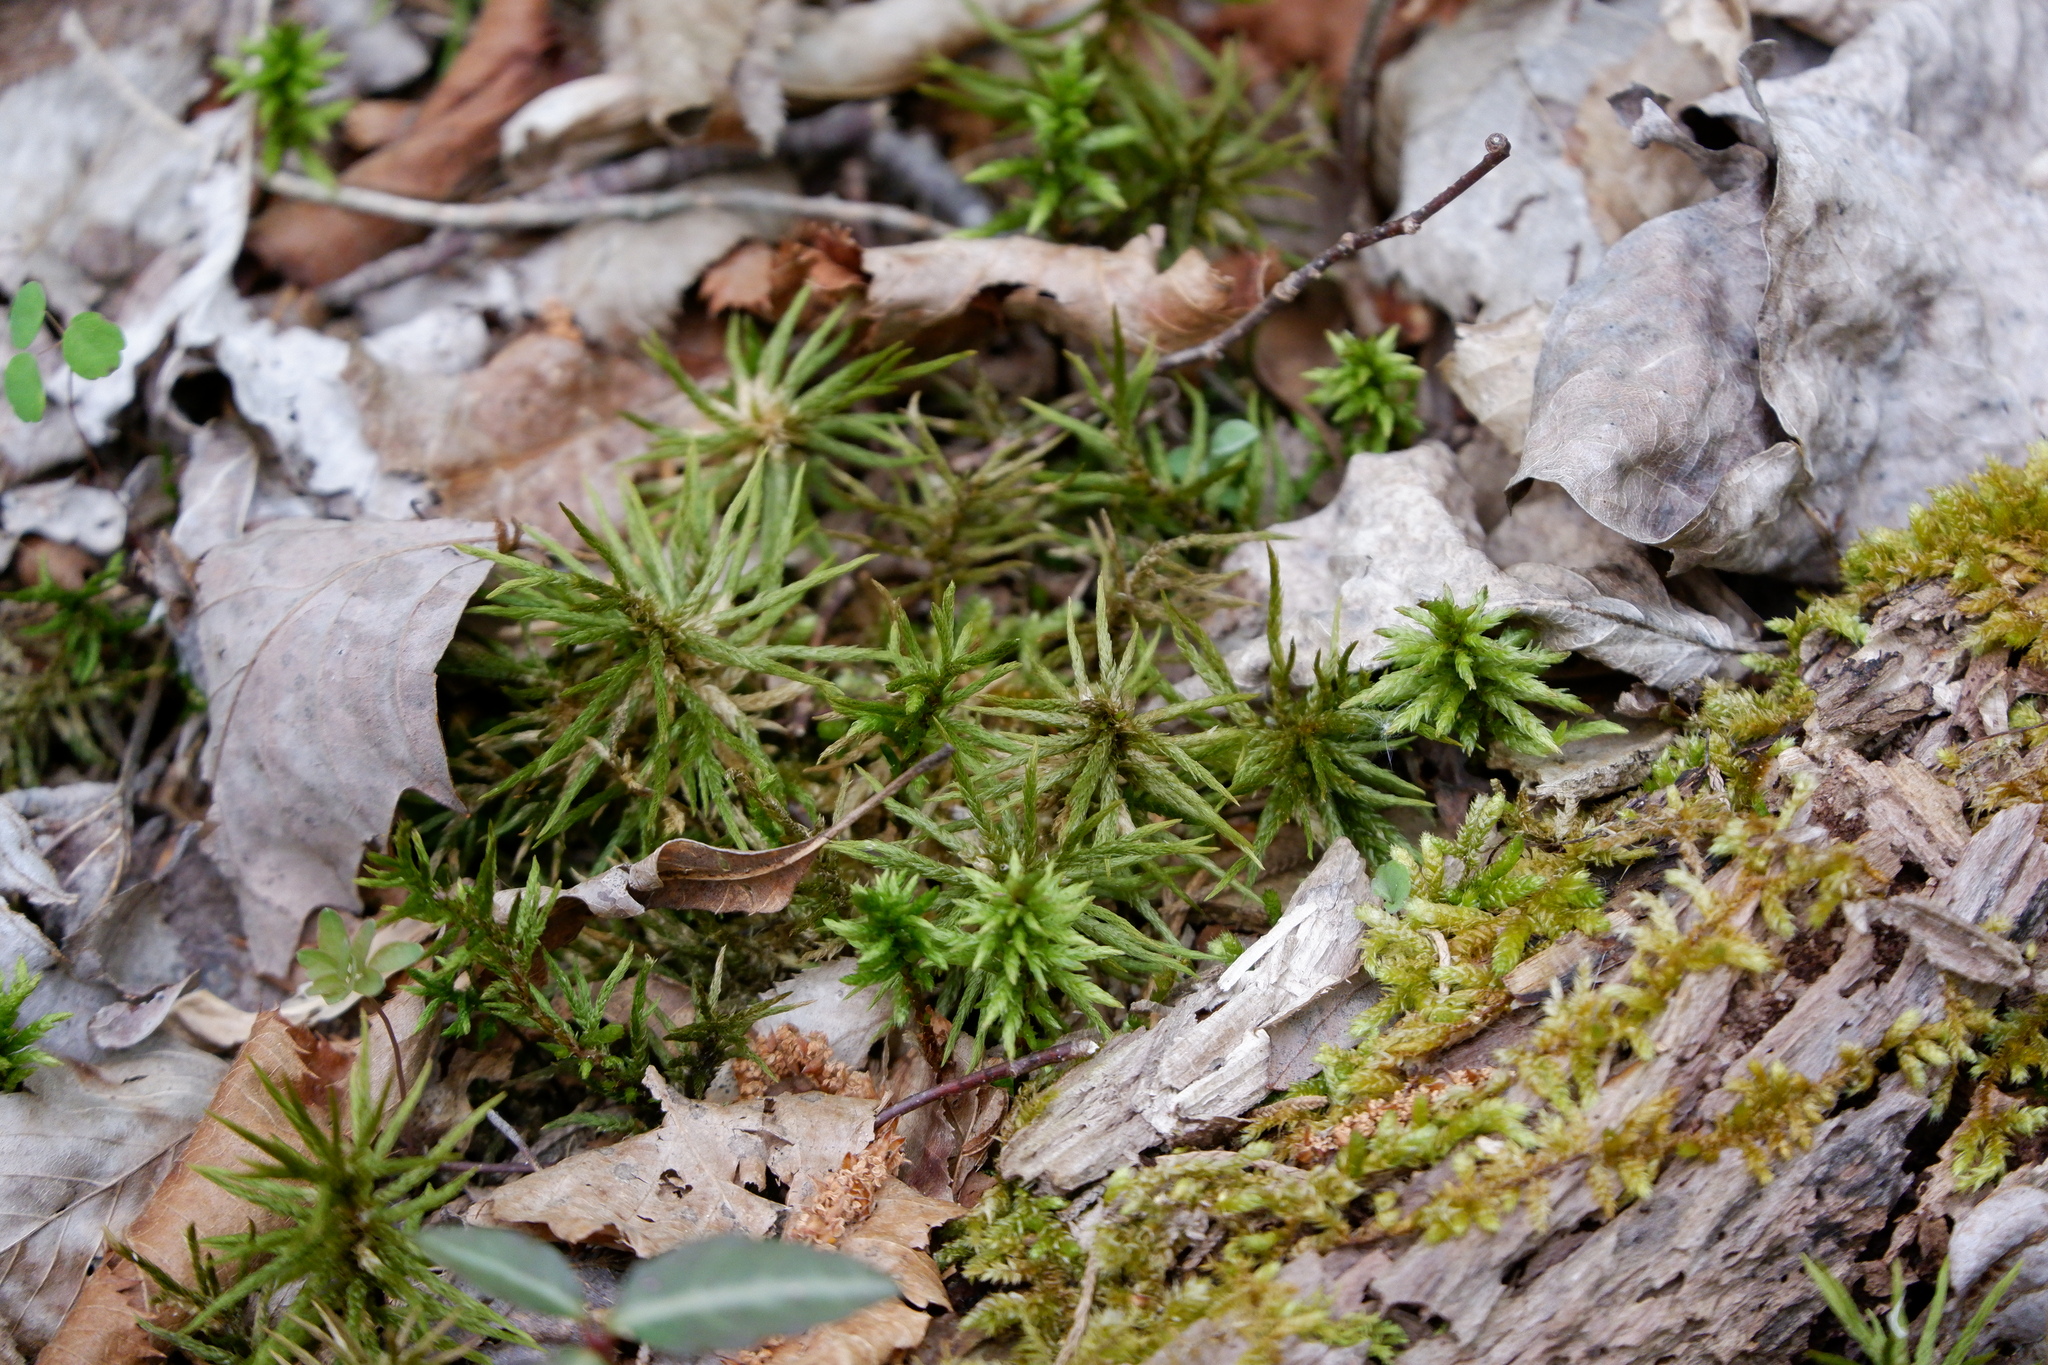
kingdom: Plantae
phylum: Bryophyta
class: Bryopsida
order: Hypnales
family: Climaciaceae
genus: Climacium
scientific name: Climacium americanum
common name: American tree moss
